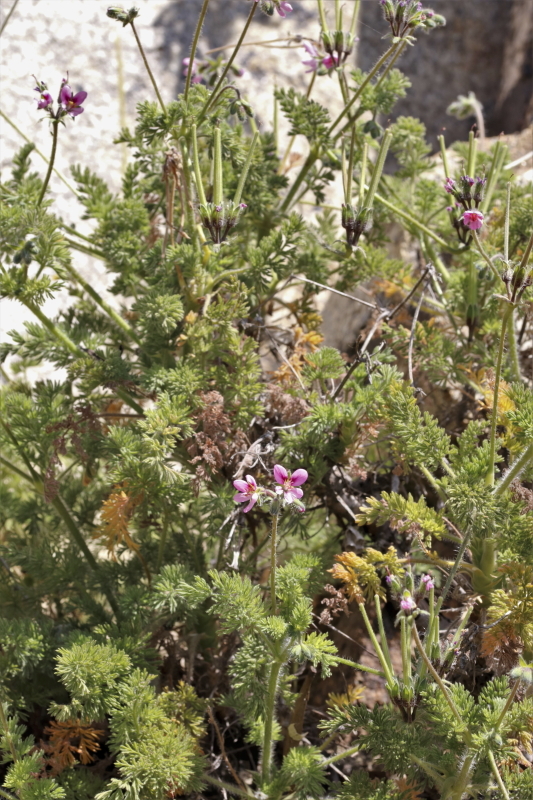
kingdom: Plantae
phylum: Tracheophyta
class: Magnoliopsida
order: Geraniales
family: Geraniaceae
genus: Pelargonium
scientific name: Pelargonium hirtum
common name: Fine-leaf pelargonium
